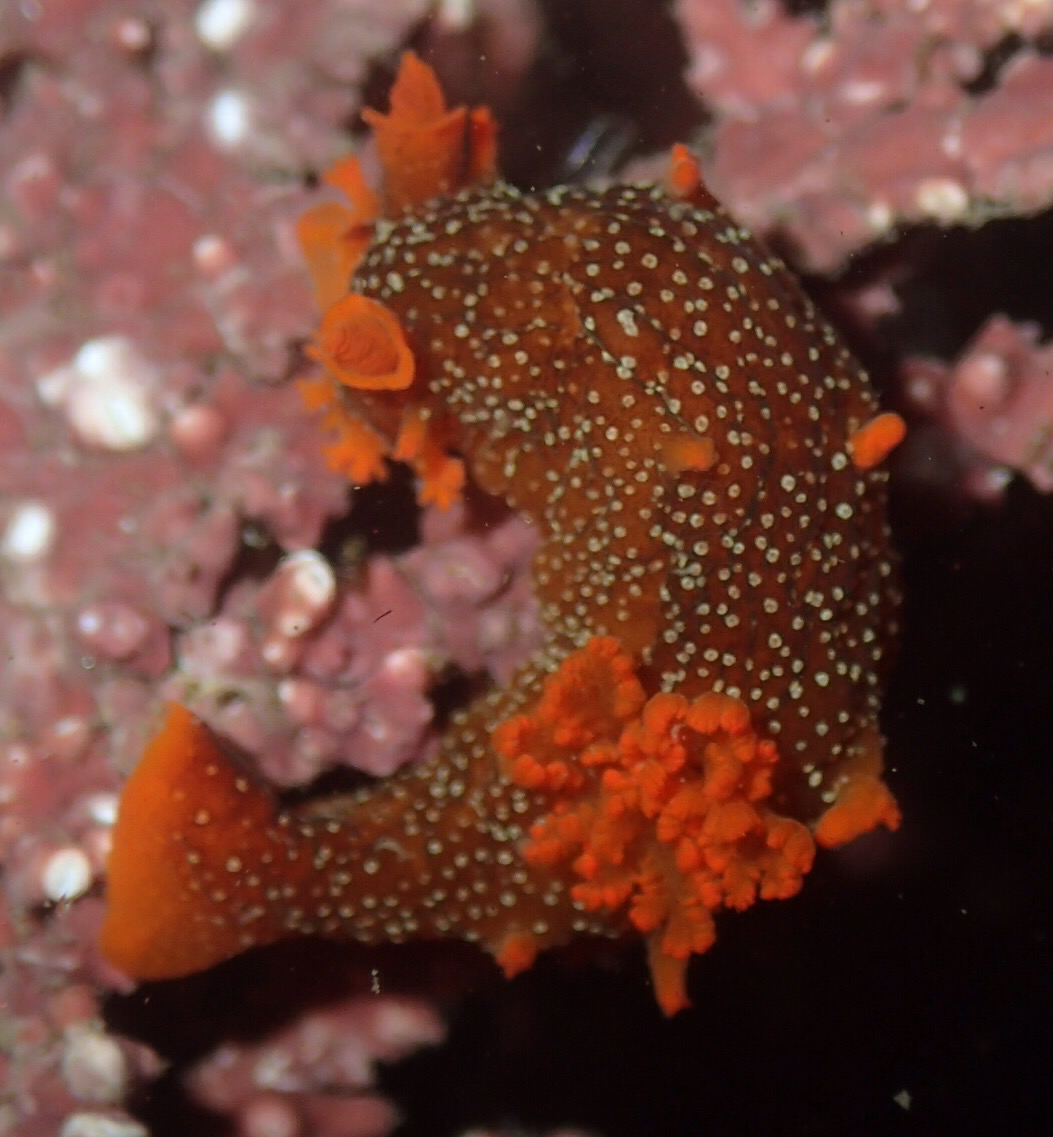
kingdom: Animalia
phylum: Mollusca
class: Gastropoda
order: Nudibranchia
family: Polyceridae
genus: Triopha
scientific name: Triopha maculata
